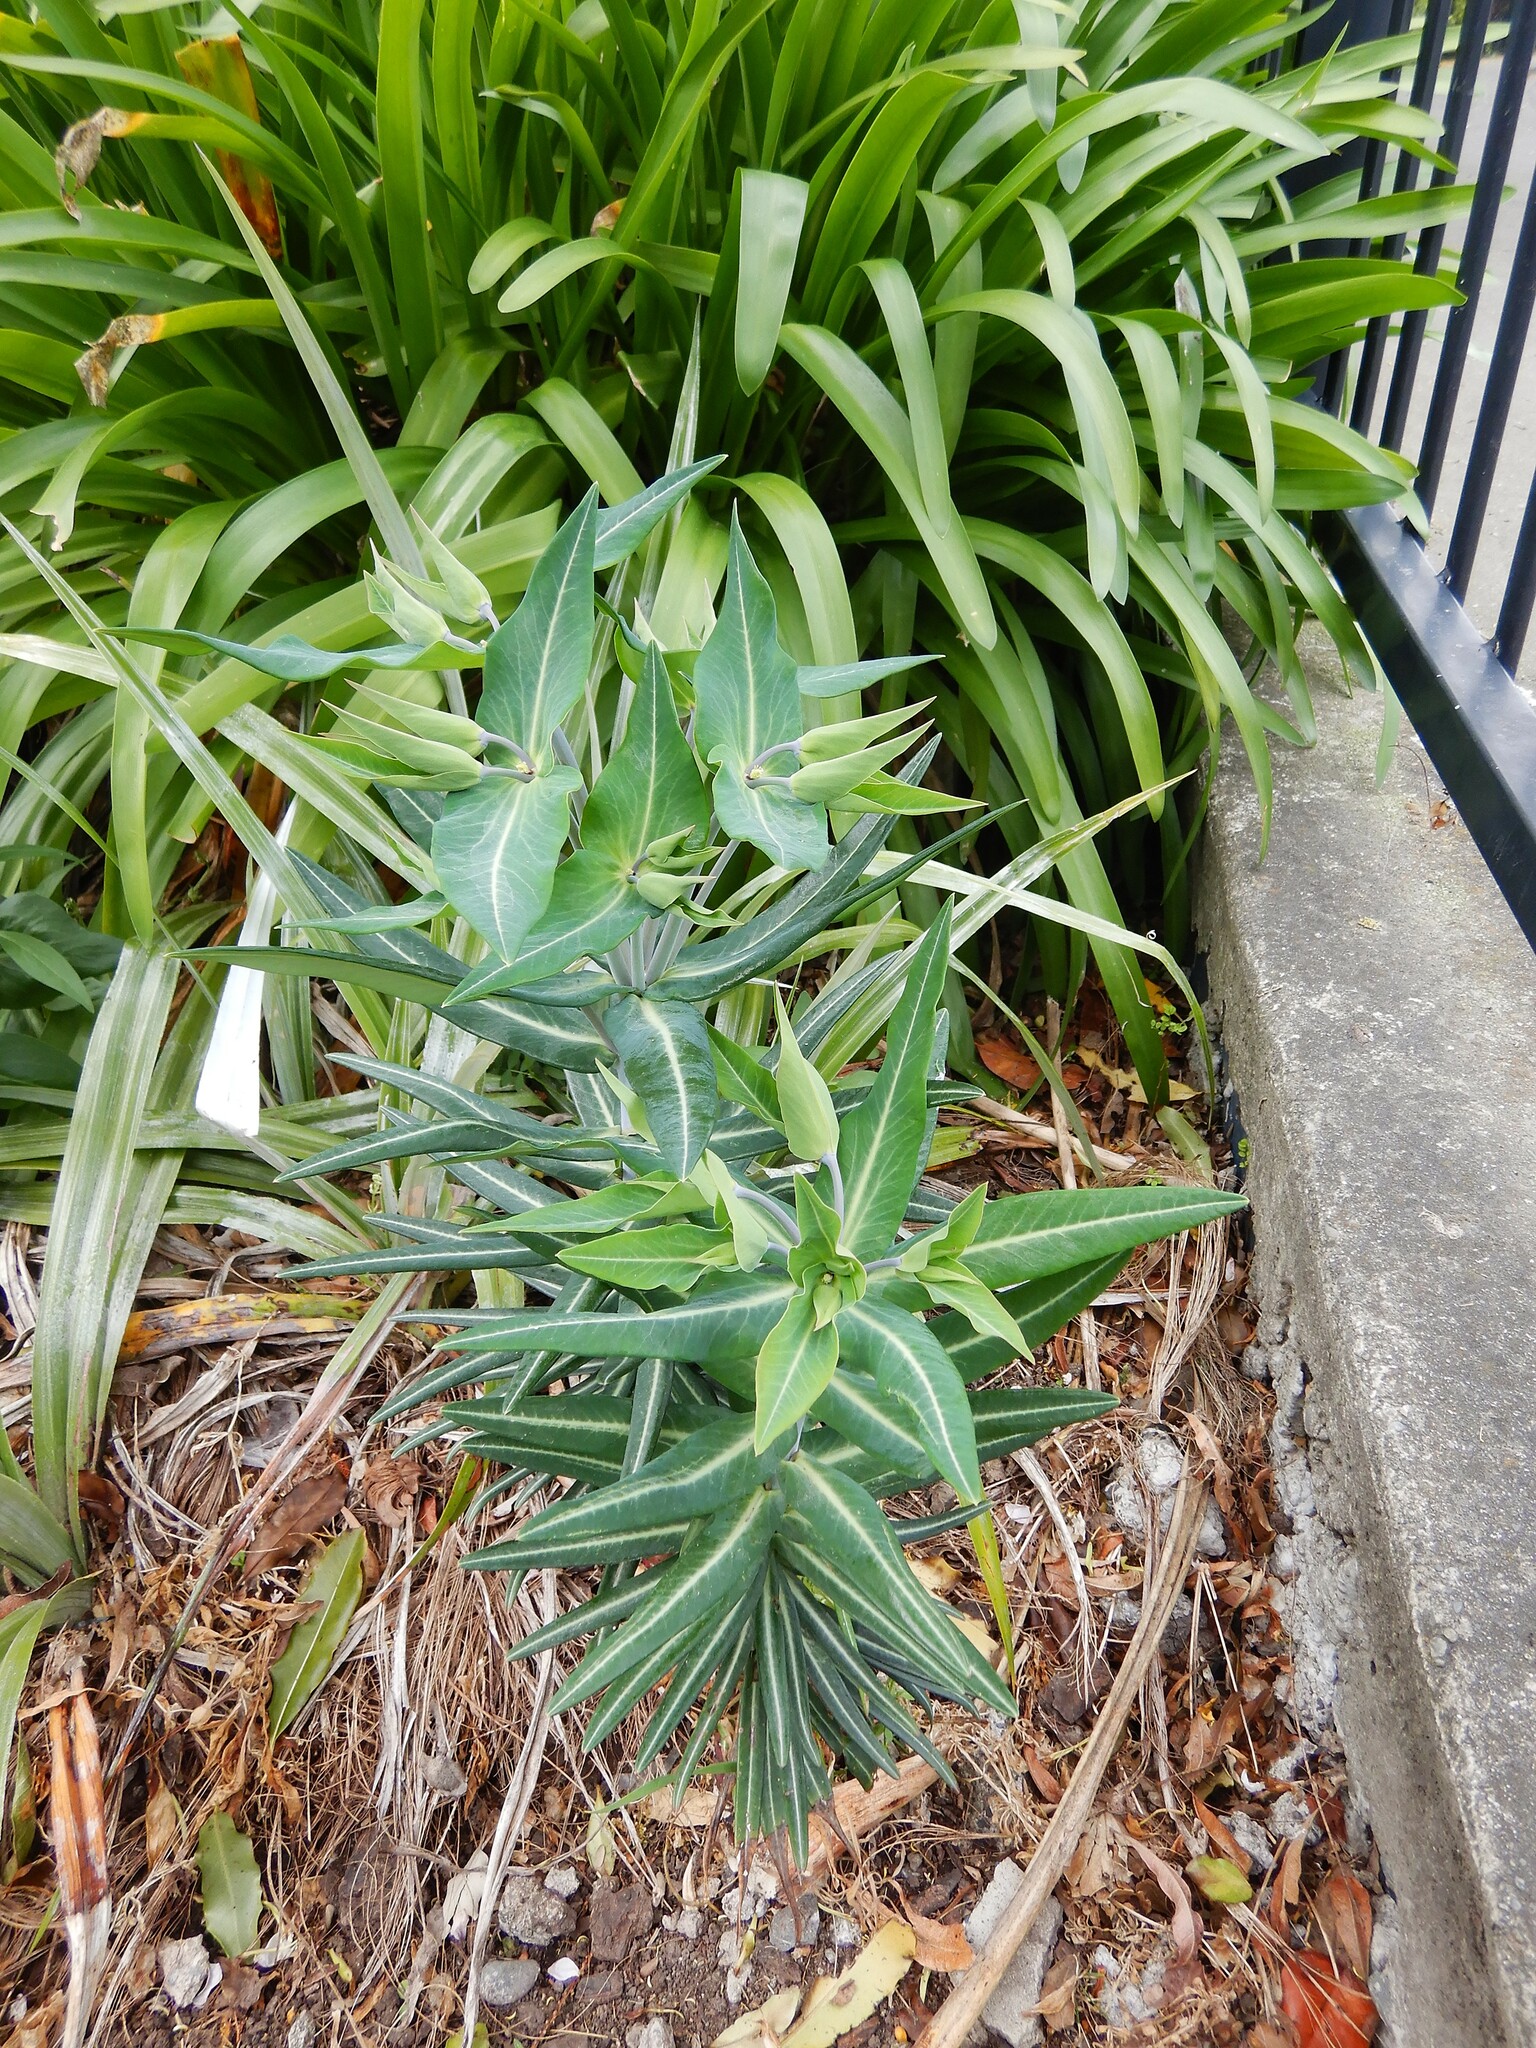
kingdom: Plantae
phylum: Tracheophyta
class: Magnoliopsida
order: Malpighiales
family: Euphorbiaceae
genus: Euphorbia
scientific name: Euphorbia lathyris
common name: Caper spurge
